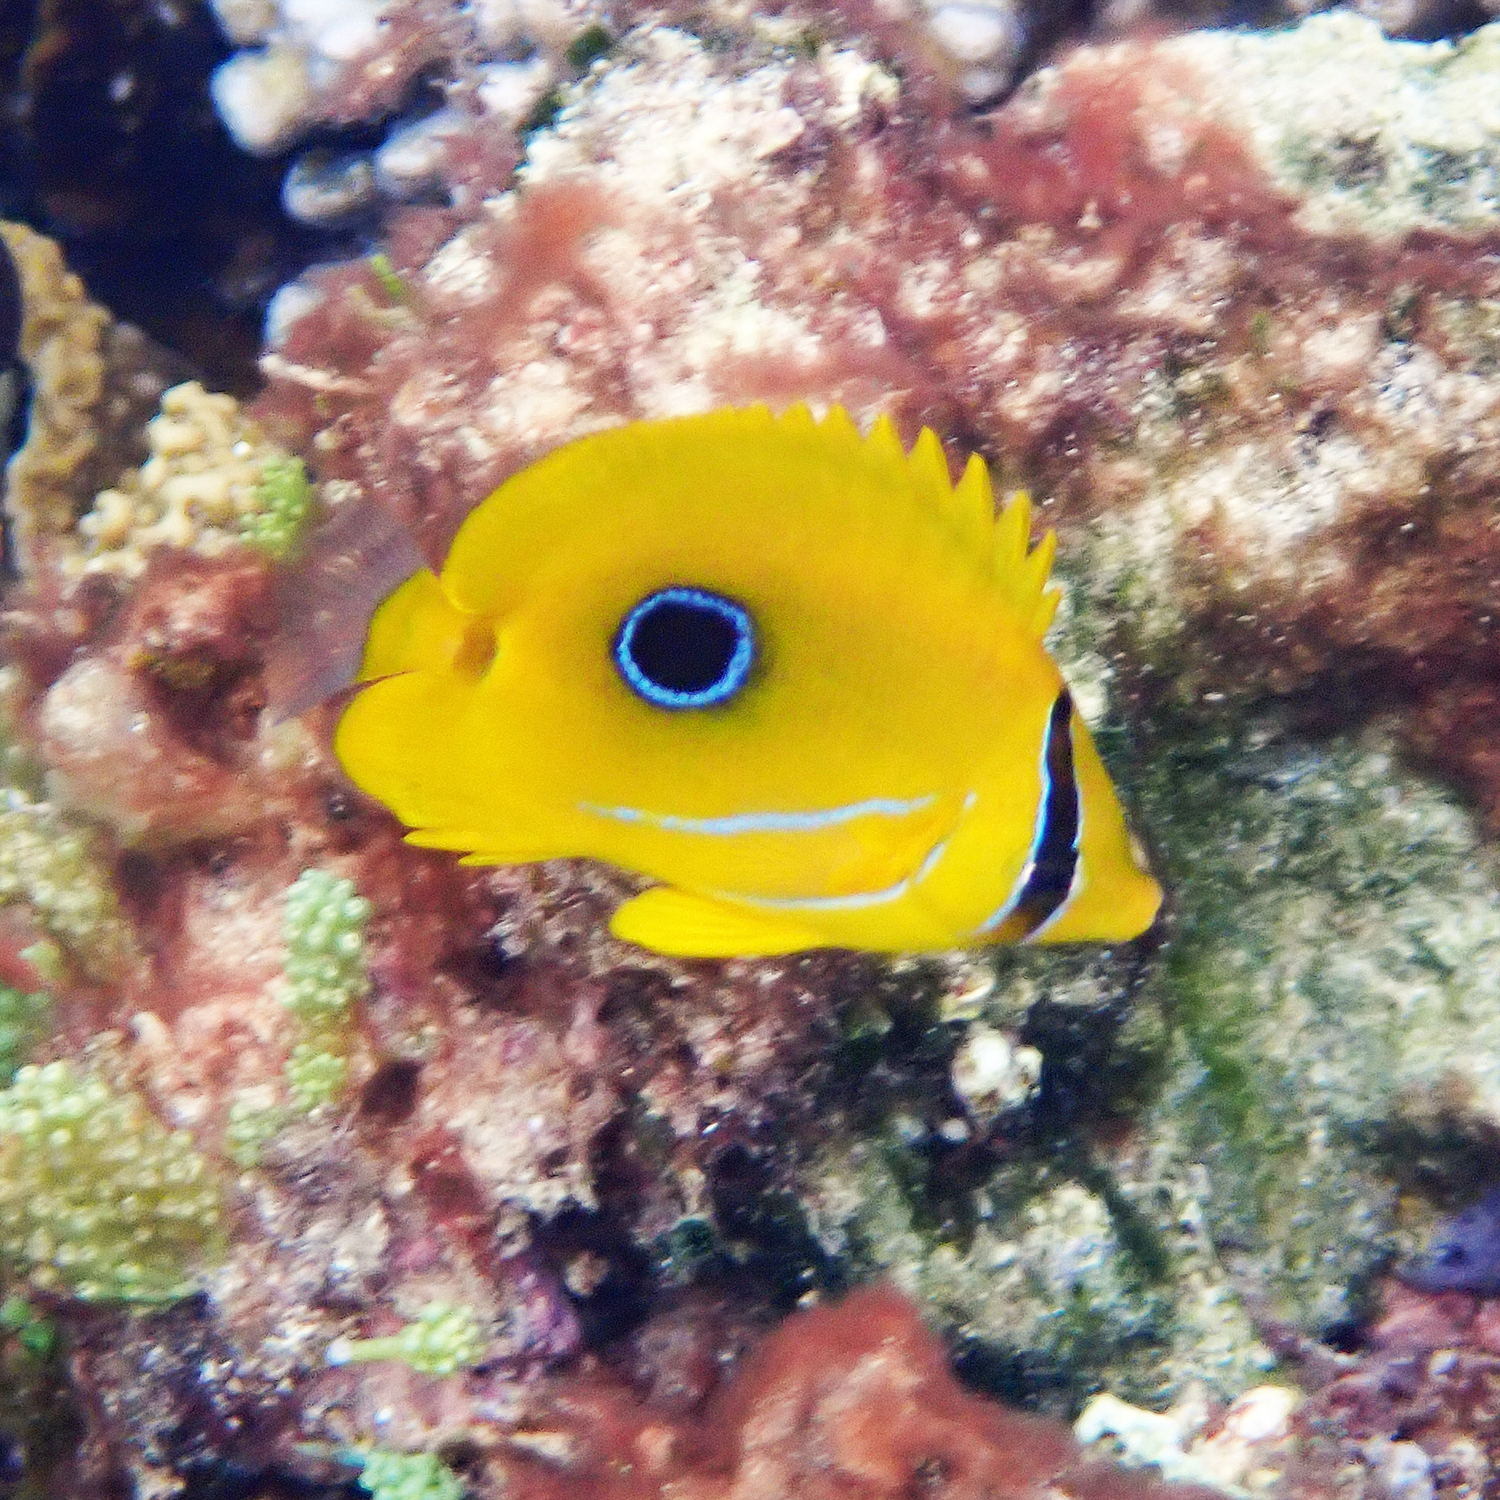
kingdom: Animalia
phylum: Chordata
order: Perciformes
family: Chaetodontidae
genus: Chaetodon
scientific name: Chaetodon bennetti
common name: Bennett's butterflyfish
